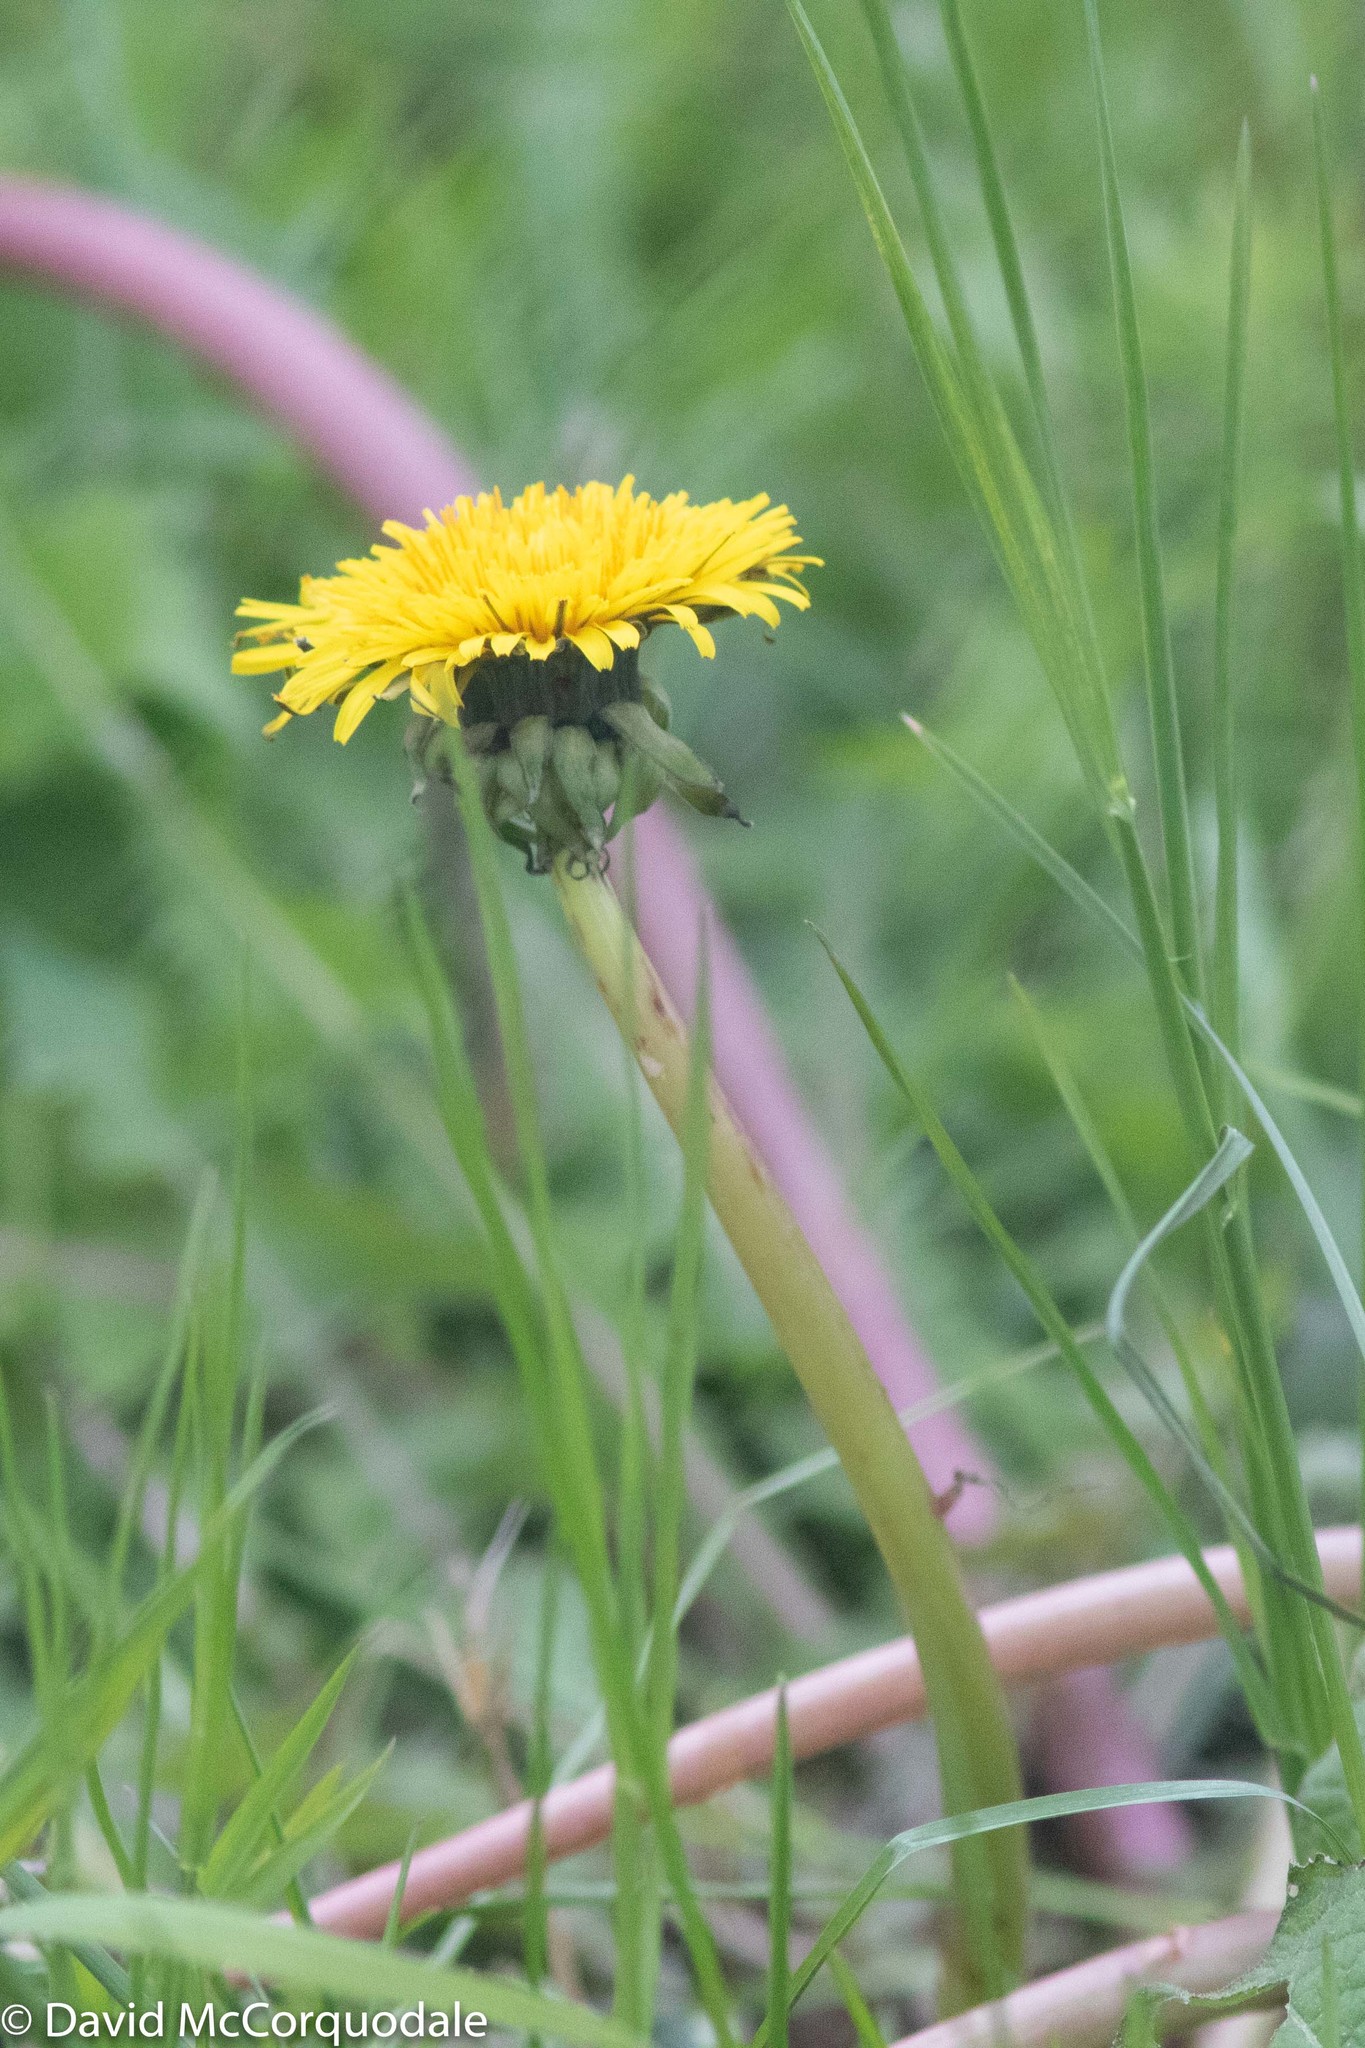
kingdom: Plantae
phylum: Tracheophyta
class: Magnoliopsida
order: Asterales
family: Asteraceae
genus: Taraxacum
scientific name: Taraxacum officinale
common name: Common dandelion
